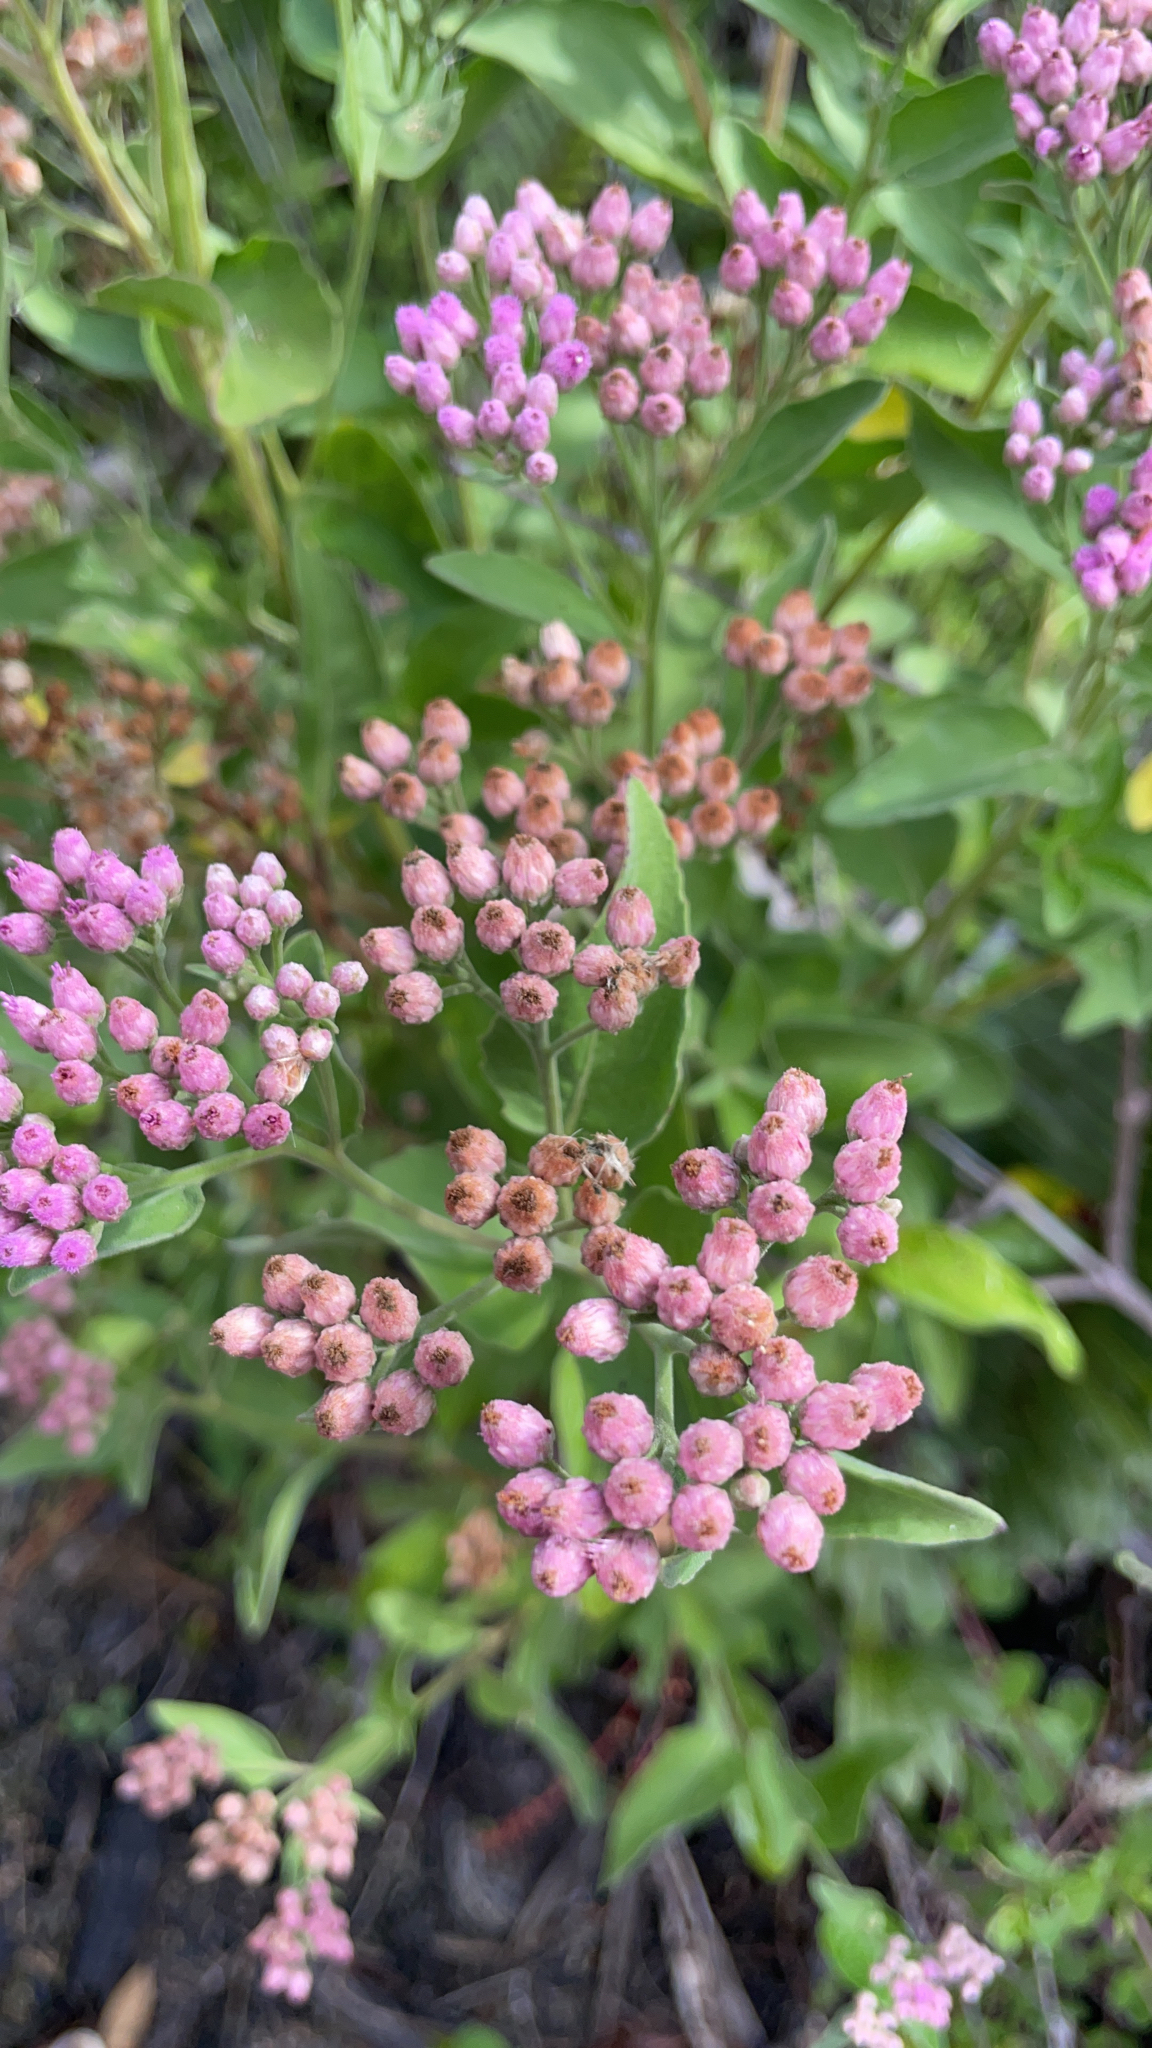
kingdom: Plantae
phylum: Tracheophyta
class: Magnoliopsida
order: Asterales
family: Asteraceae
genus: Pluchea
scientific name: Pluchea odorata
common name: Saltmarsh fleabane
